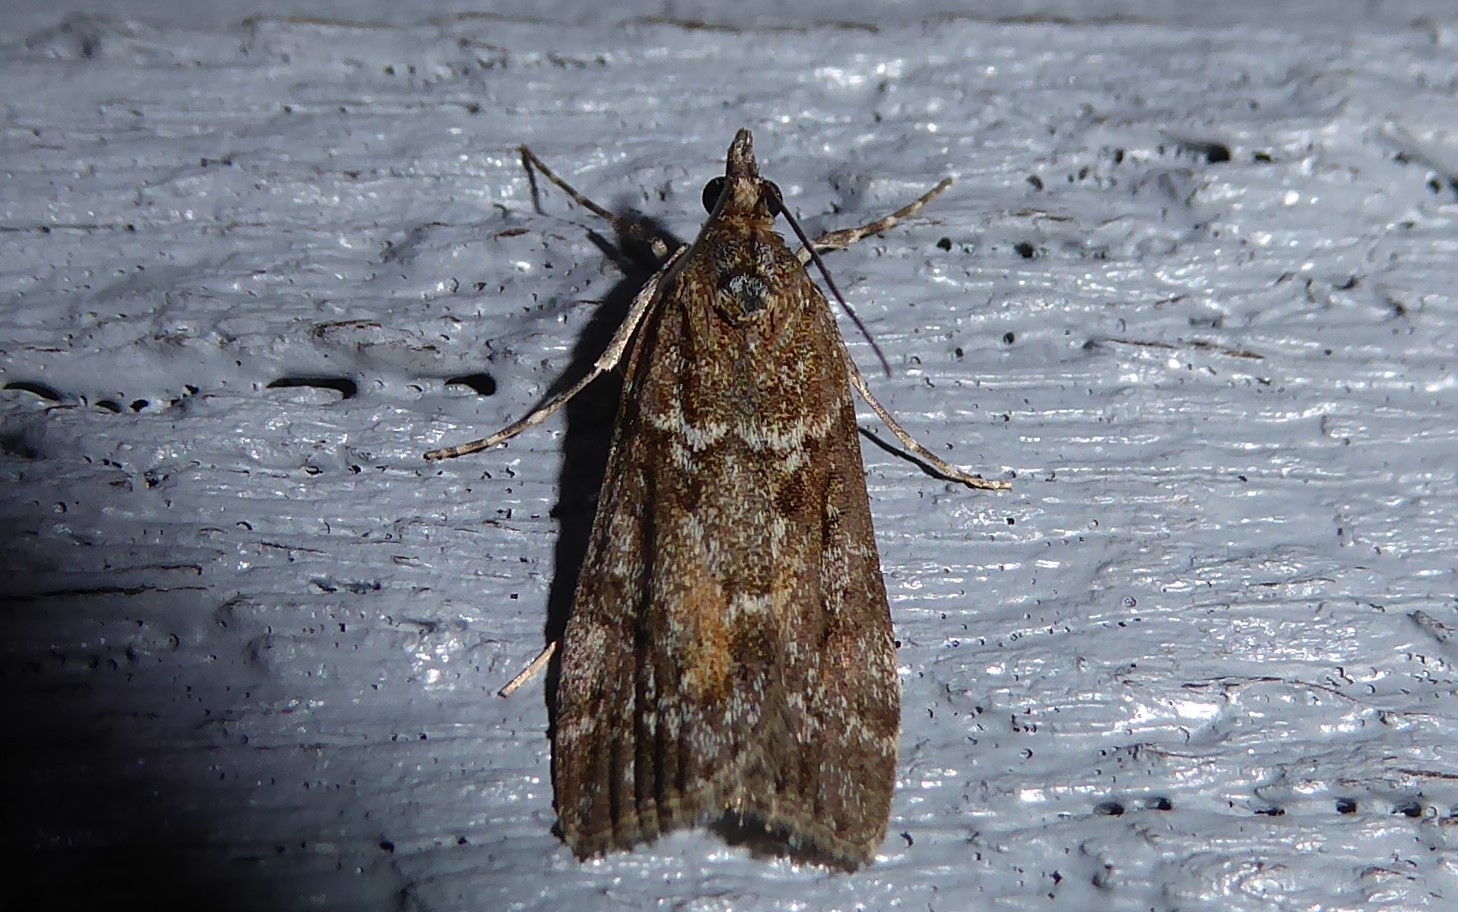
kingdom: Animalia
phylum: Arthropoda
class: Insecta
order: Lepidoptera
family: Crambidae
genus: Eudonia
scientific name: Eudonia submarginalis
